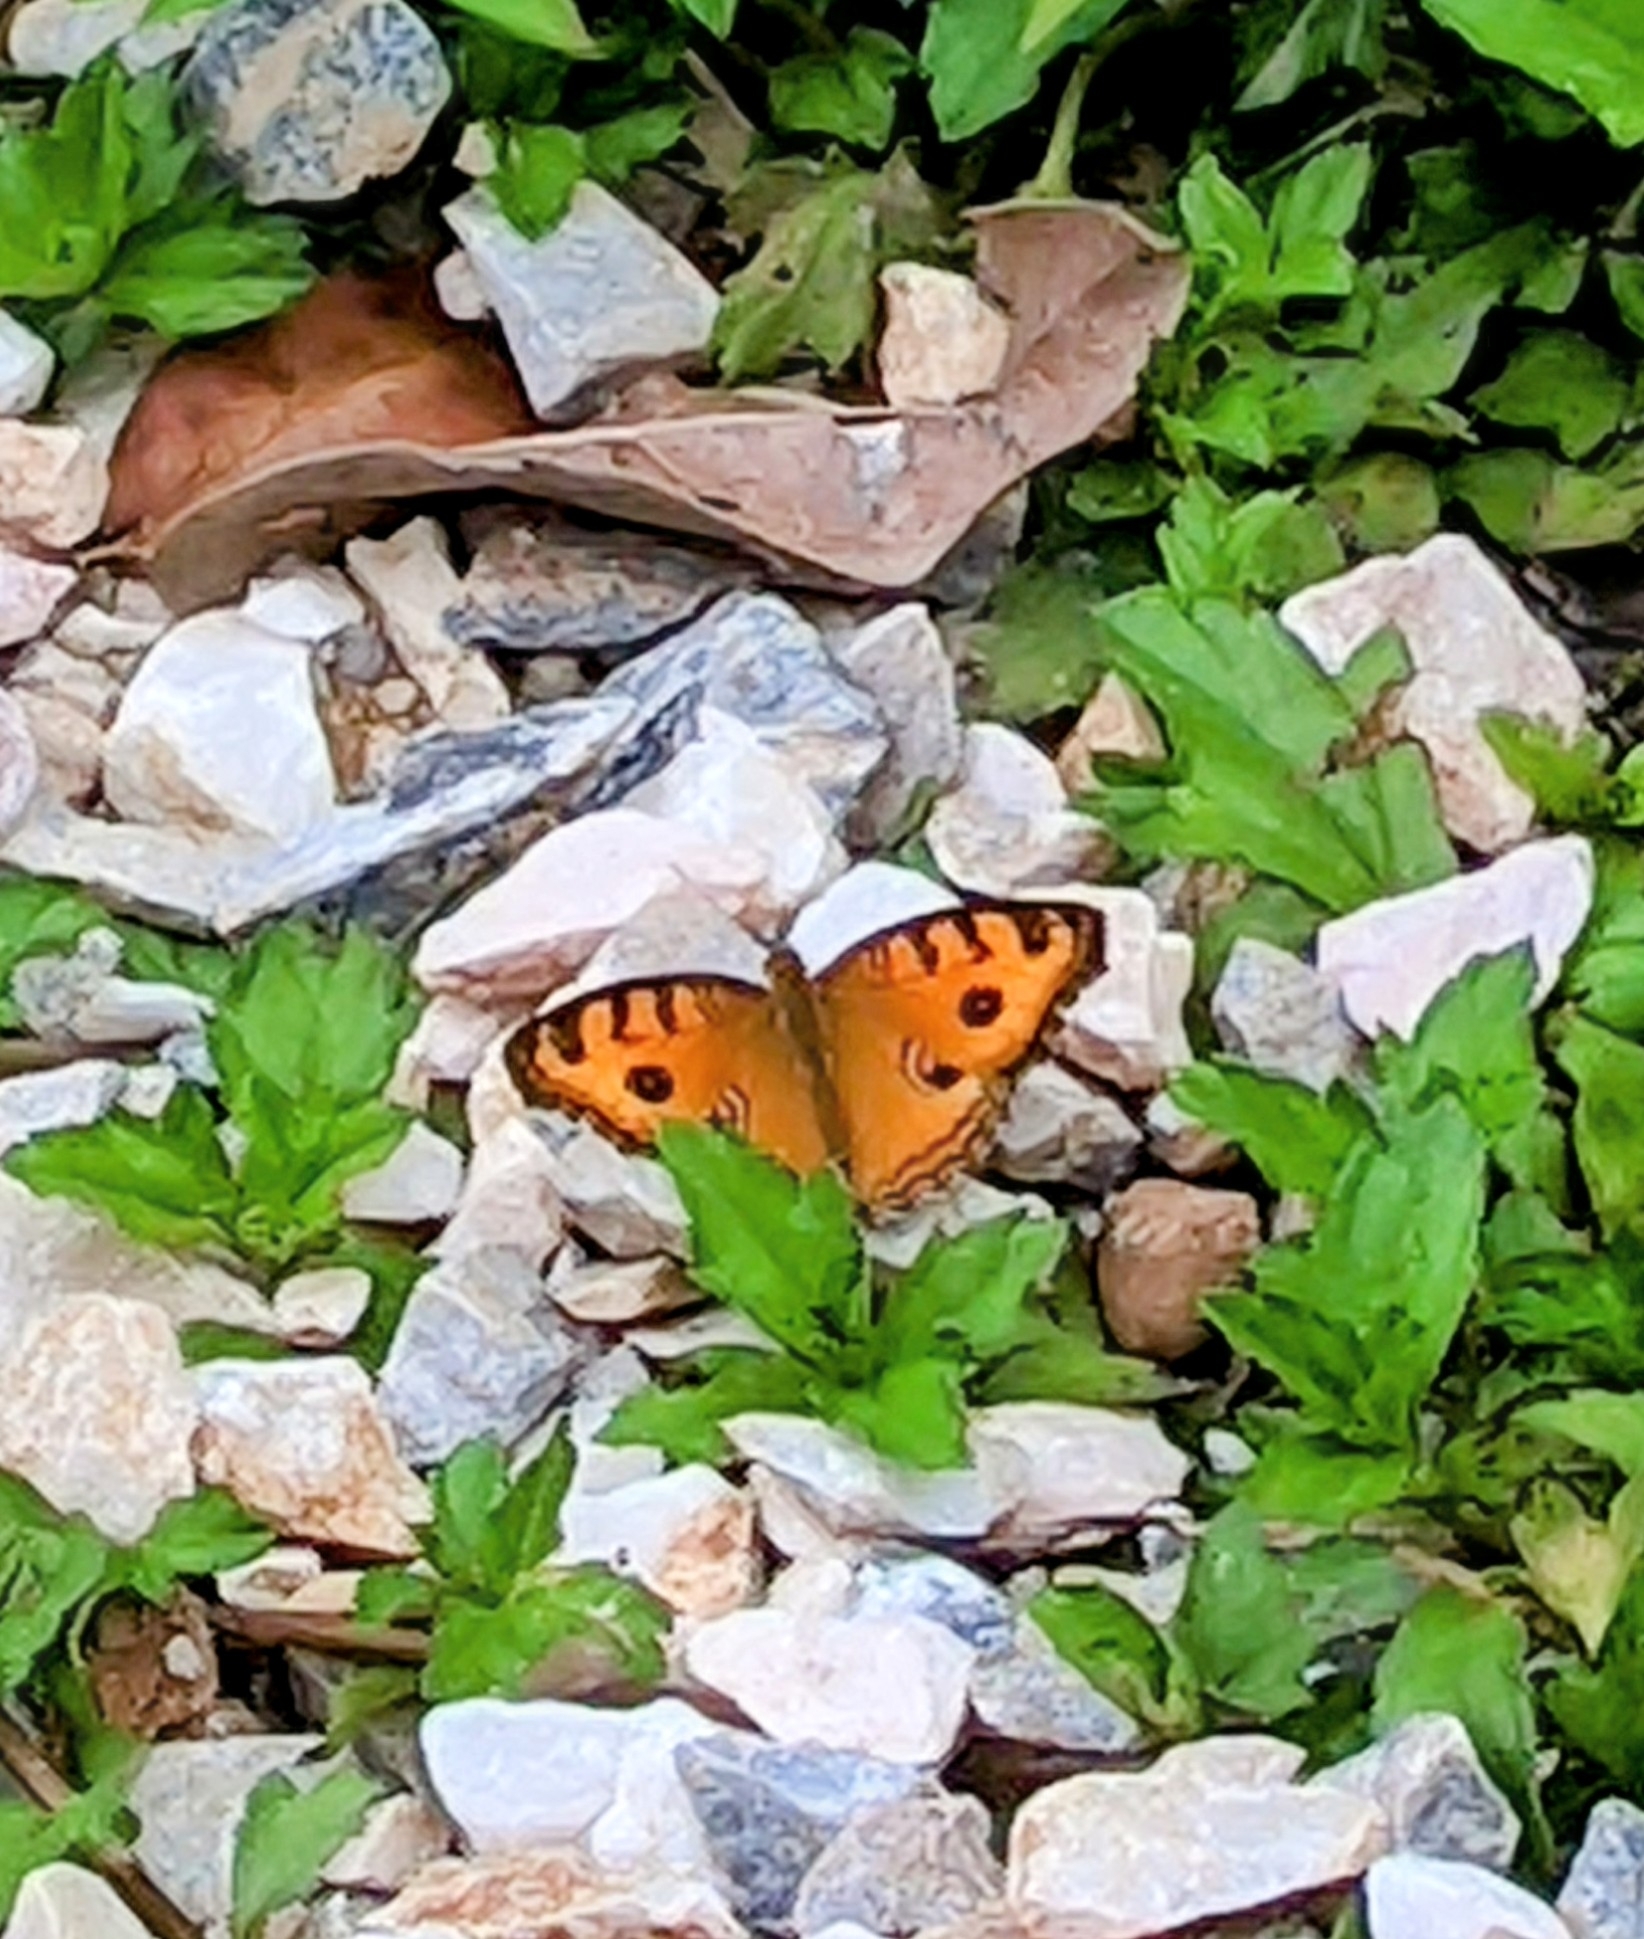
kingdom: Animalia
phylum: Arthropoda
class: Insecta
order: Lepidoptera
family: Nymphalidae
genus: Junonia
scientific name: Junonia almana
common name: Peacock pansy
